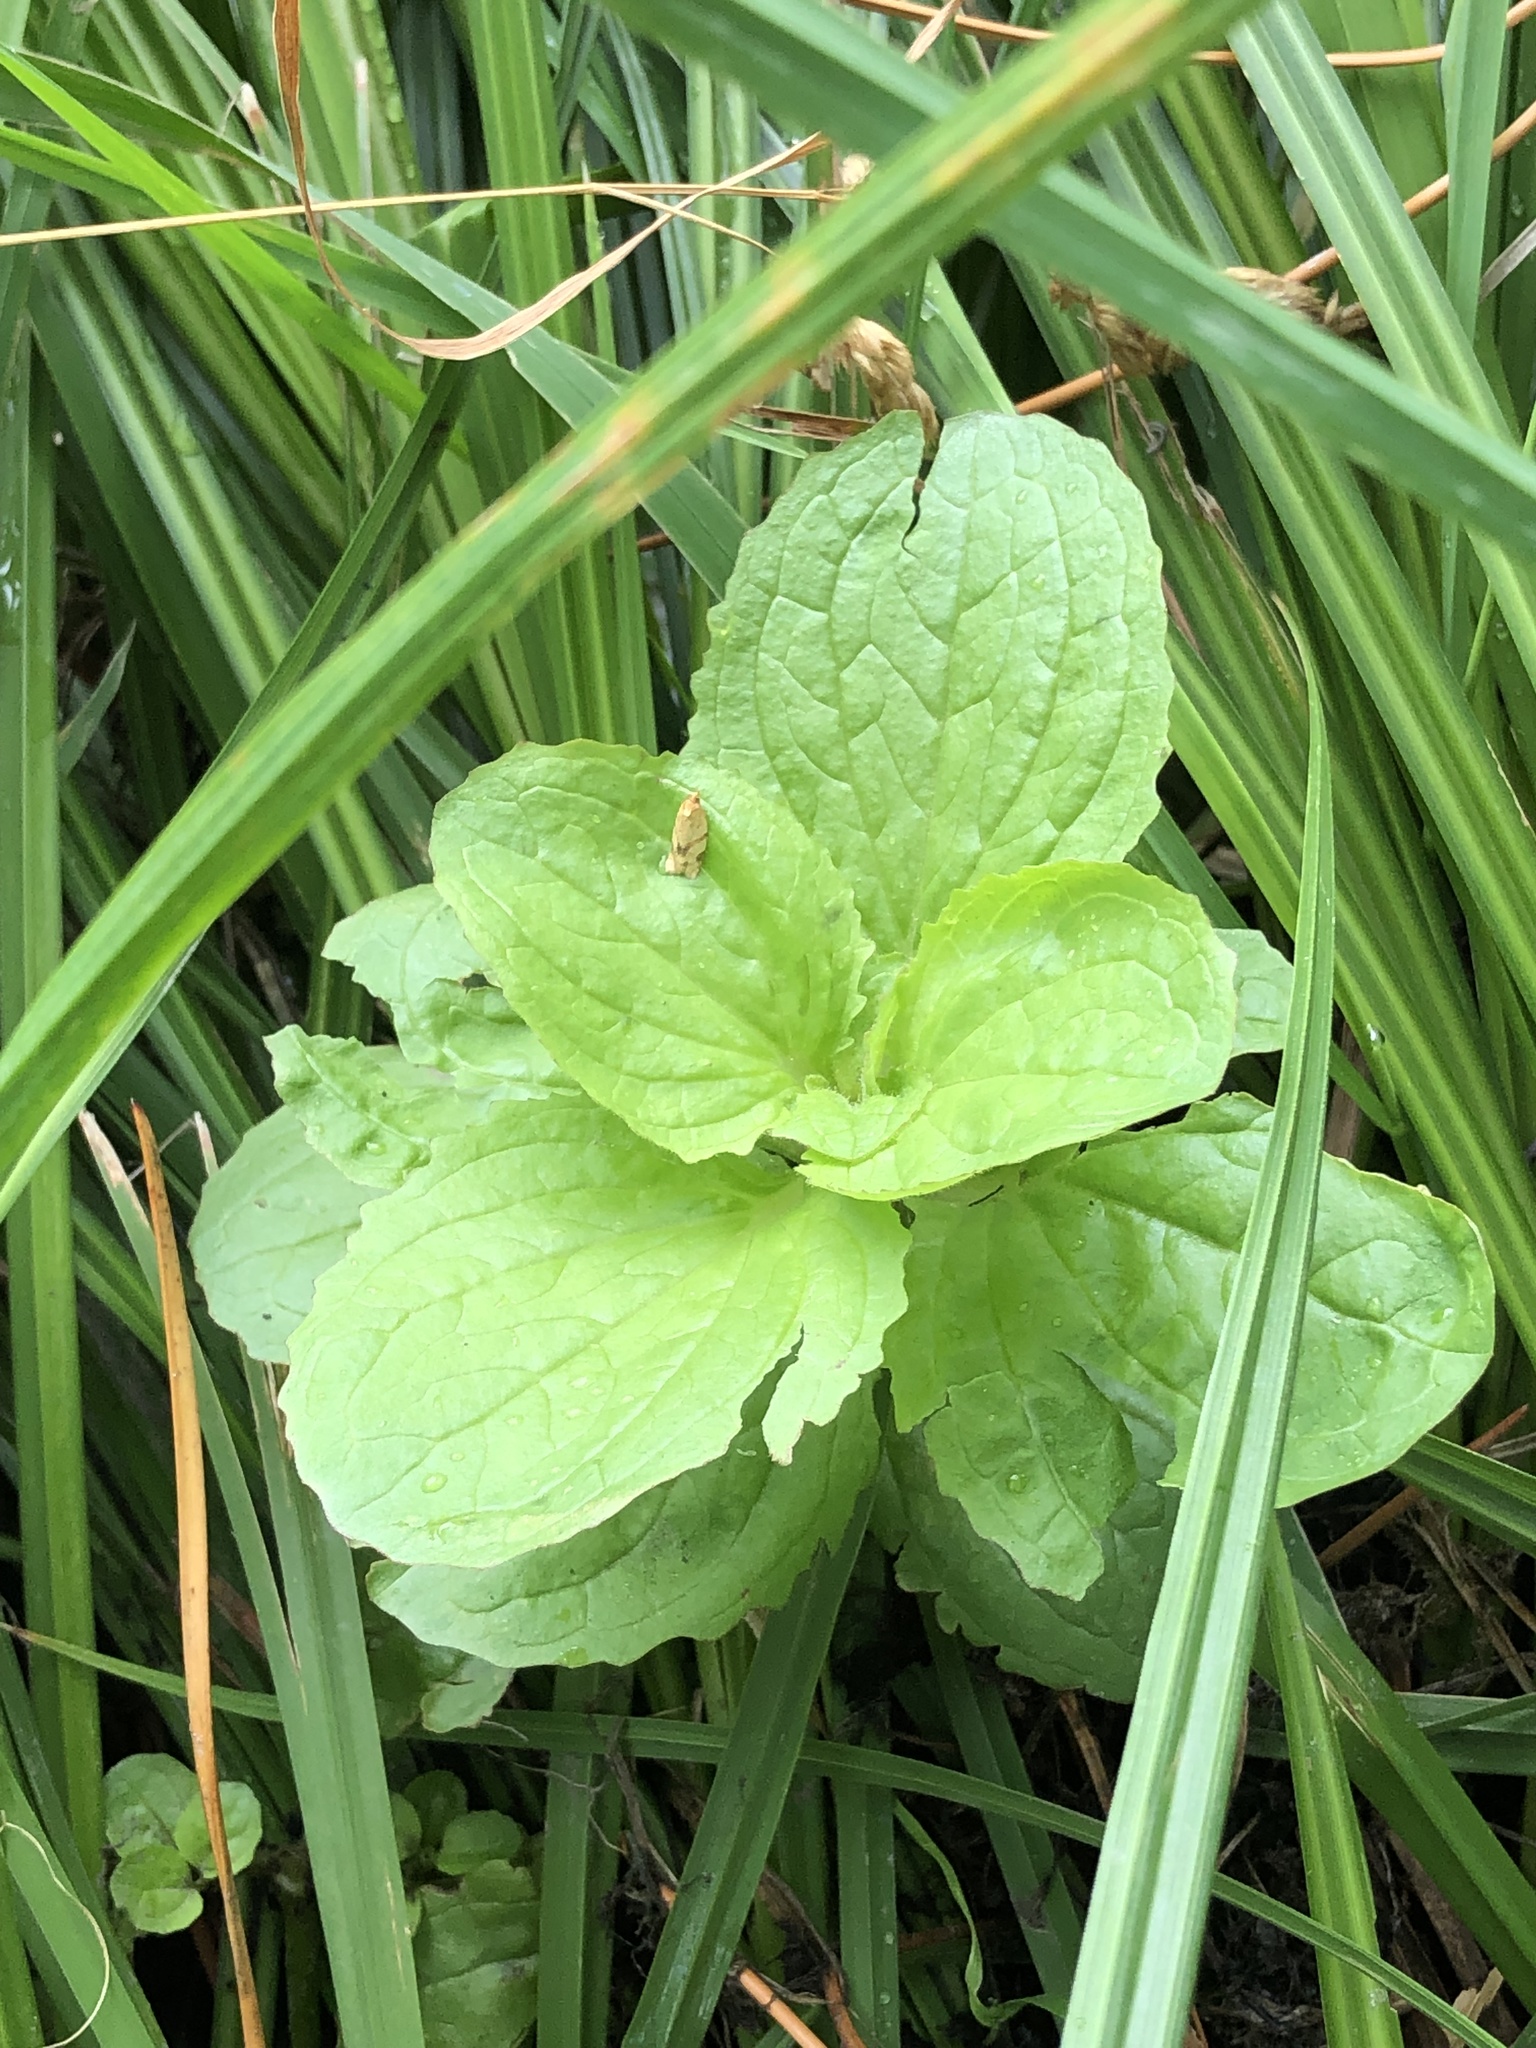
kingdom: Plantae
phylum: Tracheophyta
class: Magnoliopsida
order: Lamiales
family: Phrymaceae
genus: Erythranthe
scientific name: Erythranthe guttata
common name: Monkeyflower
